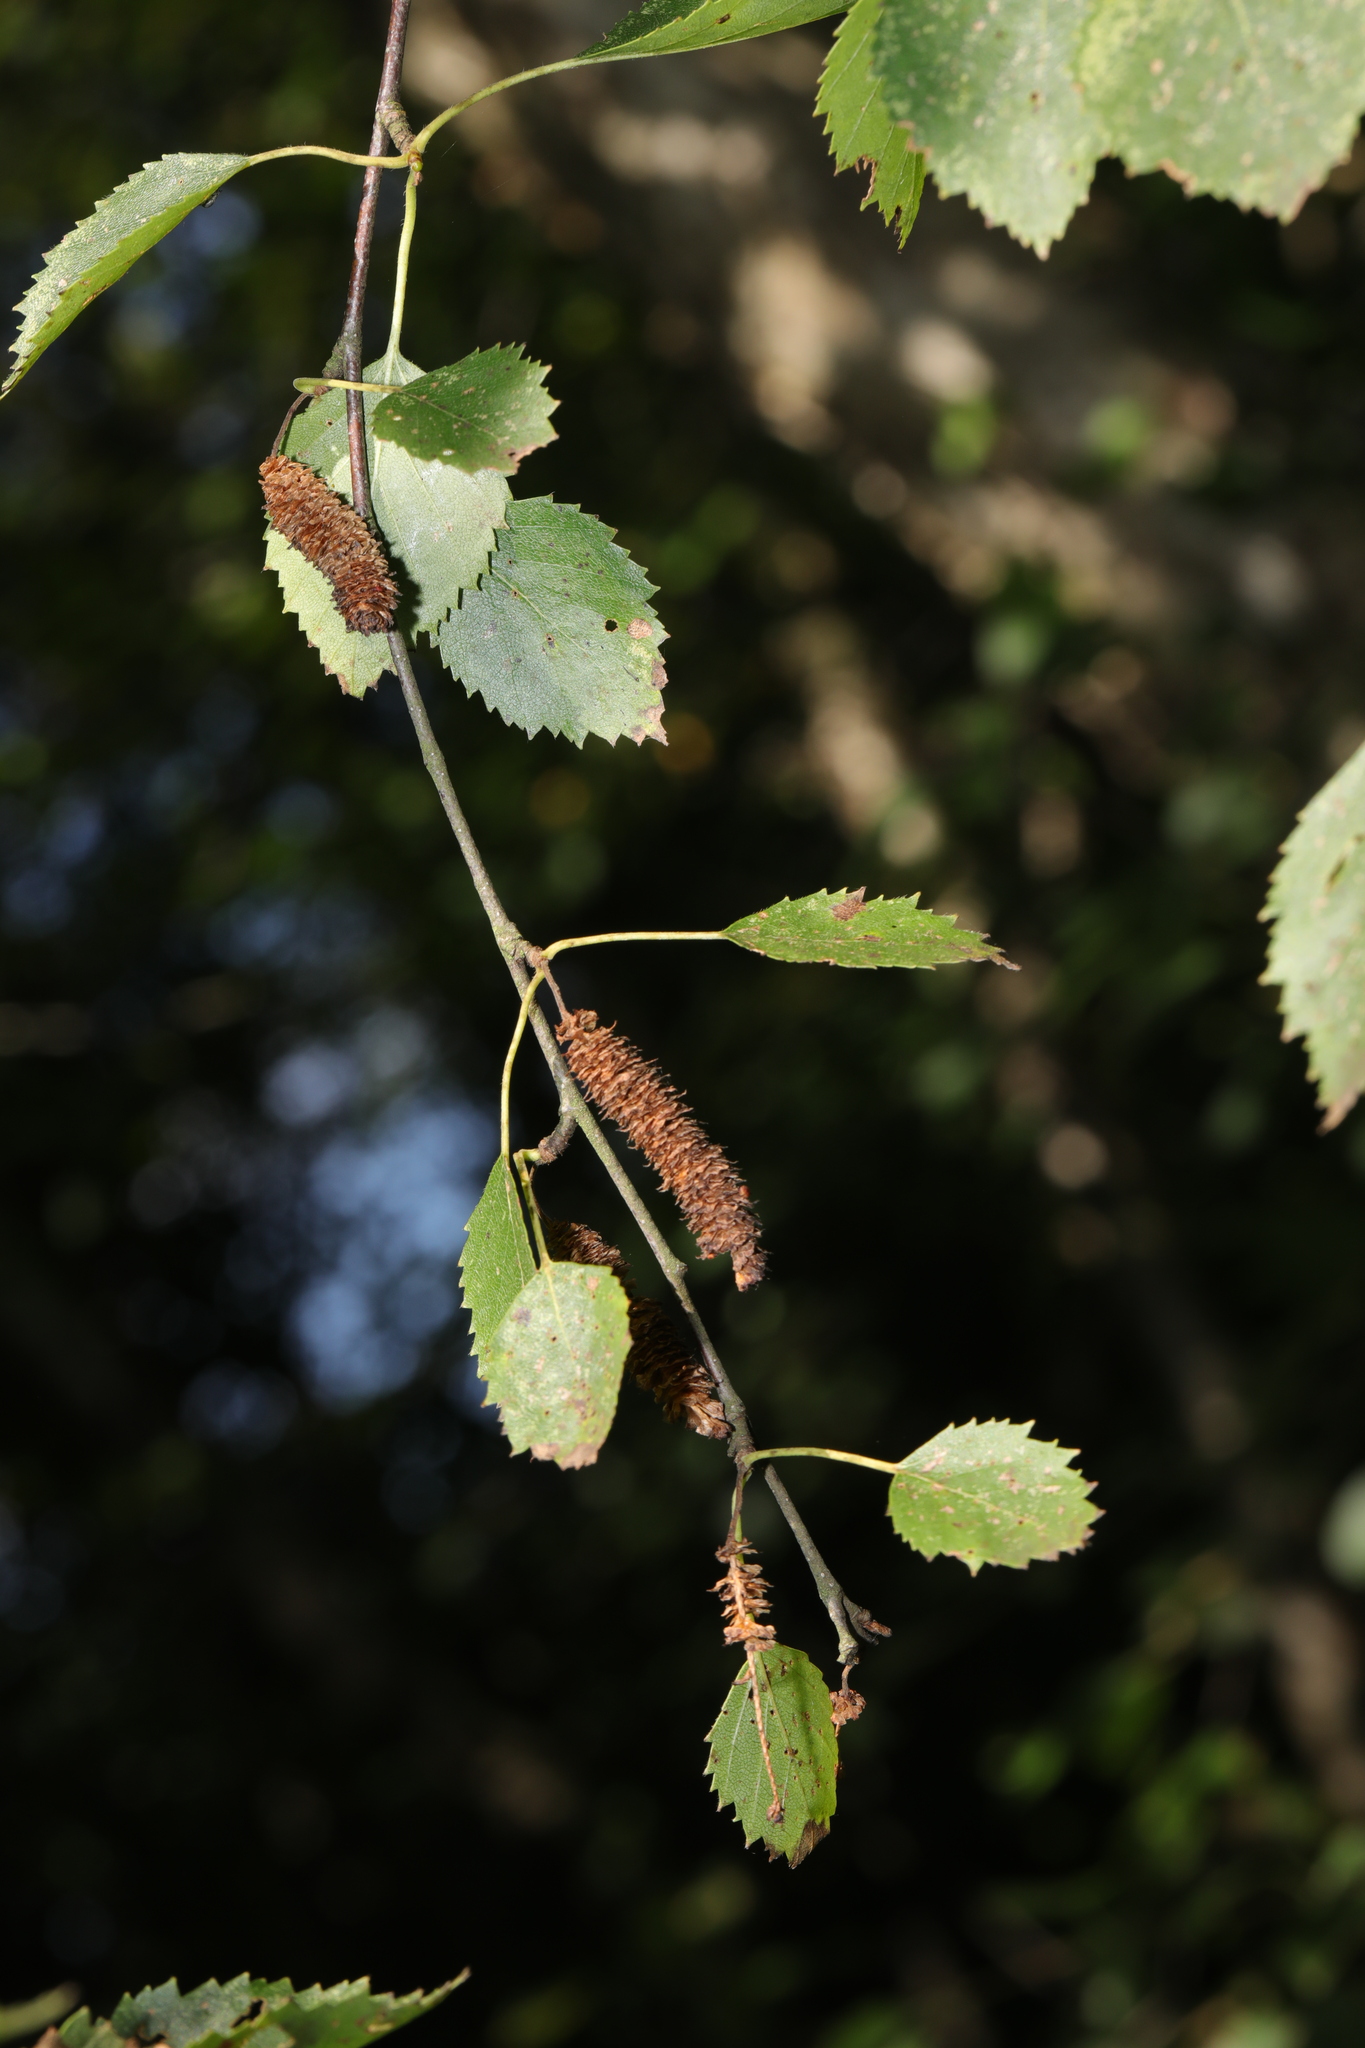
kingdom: Plantae
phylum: Tracheophyta
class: Magnoliopsida
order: Fagales
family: Betulaceae
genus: Betula
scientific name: Betula pubescens
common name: Downy birch
